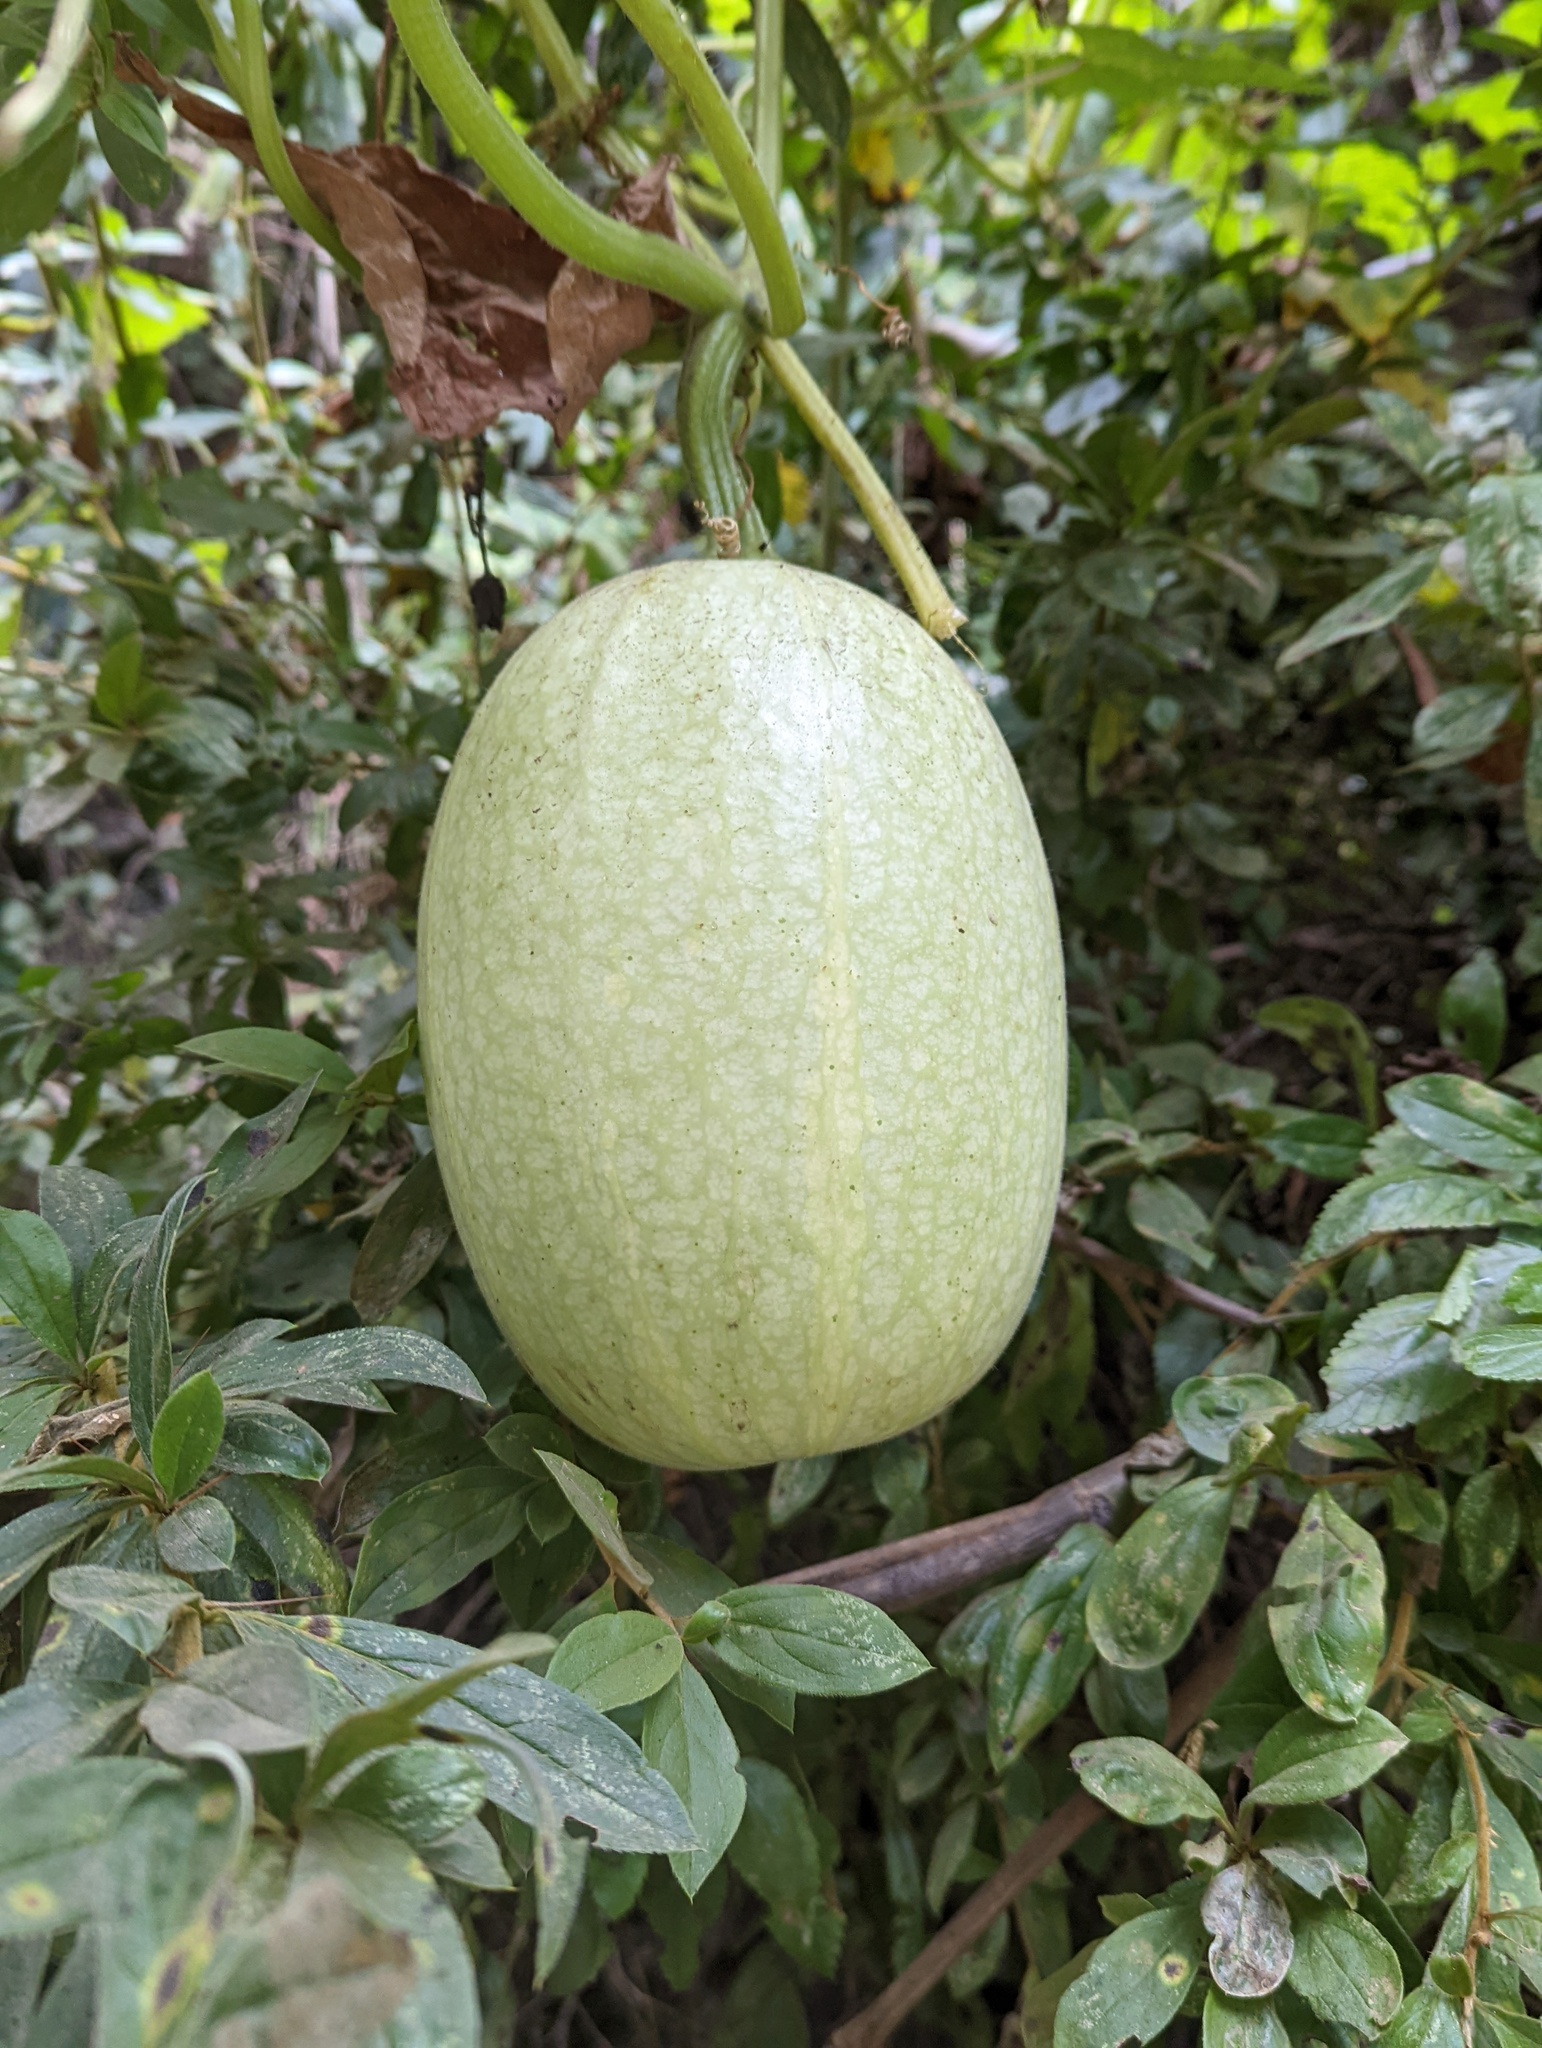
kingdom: Plantae
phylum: Tracheophyta
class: Magnoliopsida
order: Cucurbitales
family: Cucurbitaceae
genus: Cucurbita
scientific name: Cucurbita ficifolia
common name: Figleaf gourd
